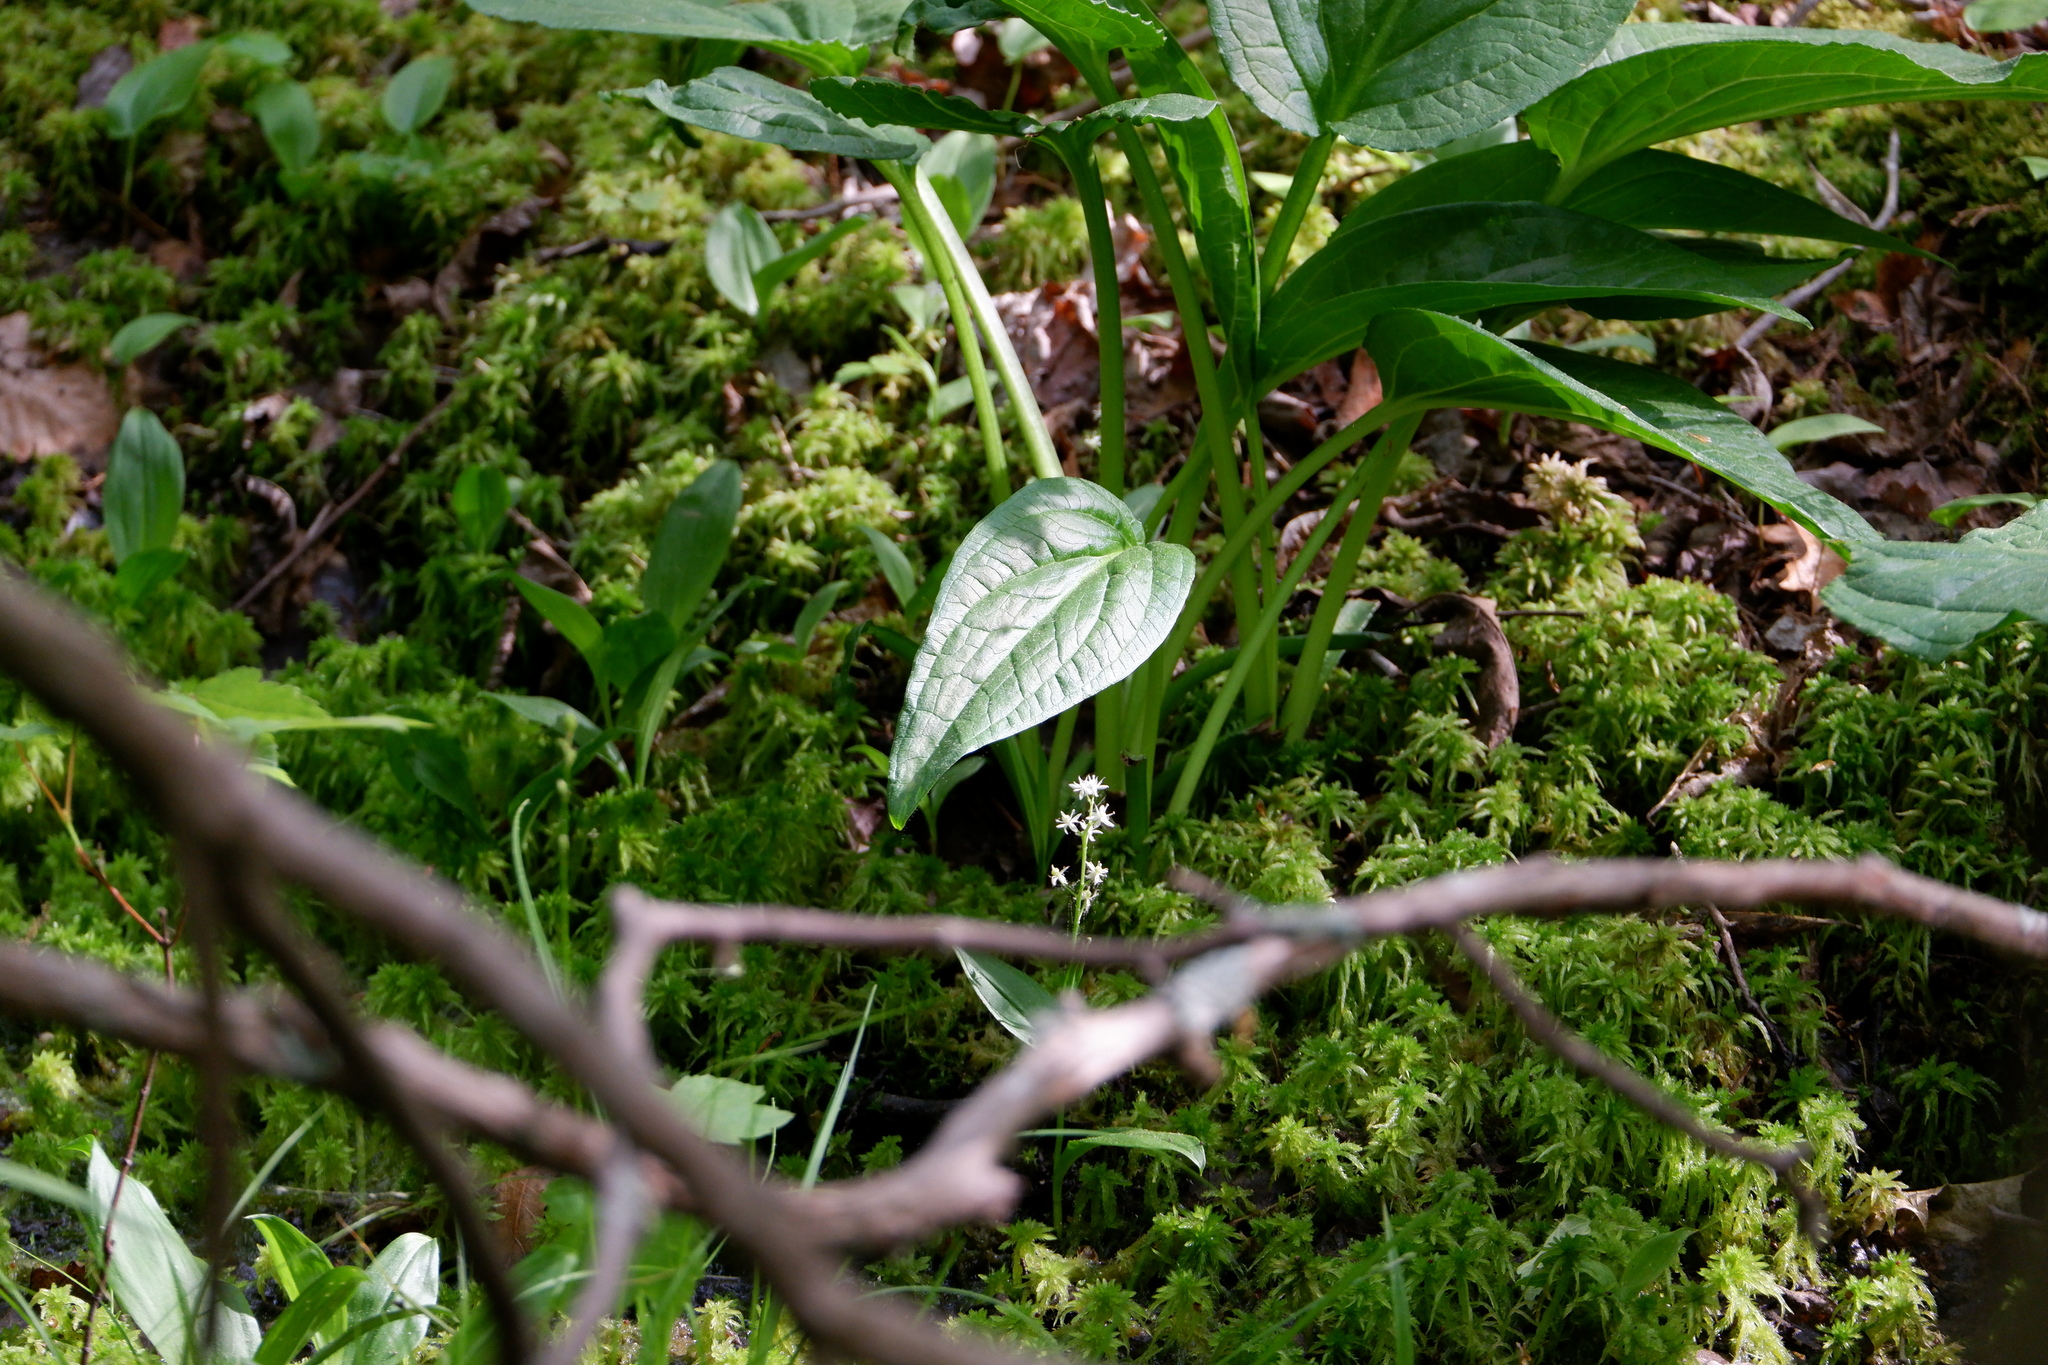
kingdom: Plantae
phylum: Tracheophyta
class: Liliopsida
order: Asparagales
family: Asparagaceae
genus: Maianthemum
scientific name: Maianthemum trifolium
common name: Swamp false solomon's seal
